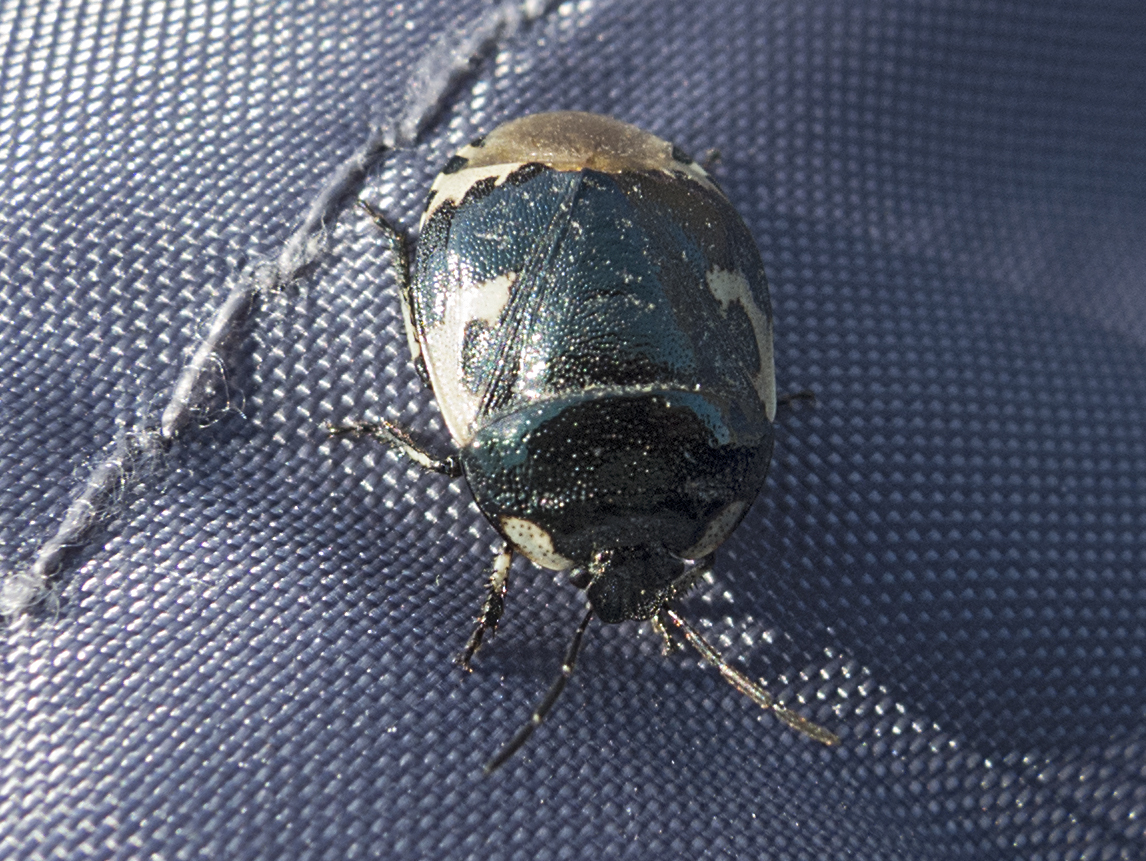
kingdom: Animalia
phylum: Arthropoda
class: Insecta
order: Hemiptera
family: Cydnidae
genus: Tritomegas
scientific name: Tritomegas bicolor
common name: Pied shieldbug
